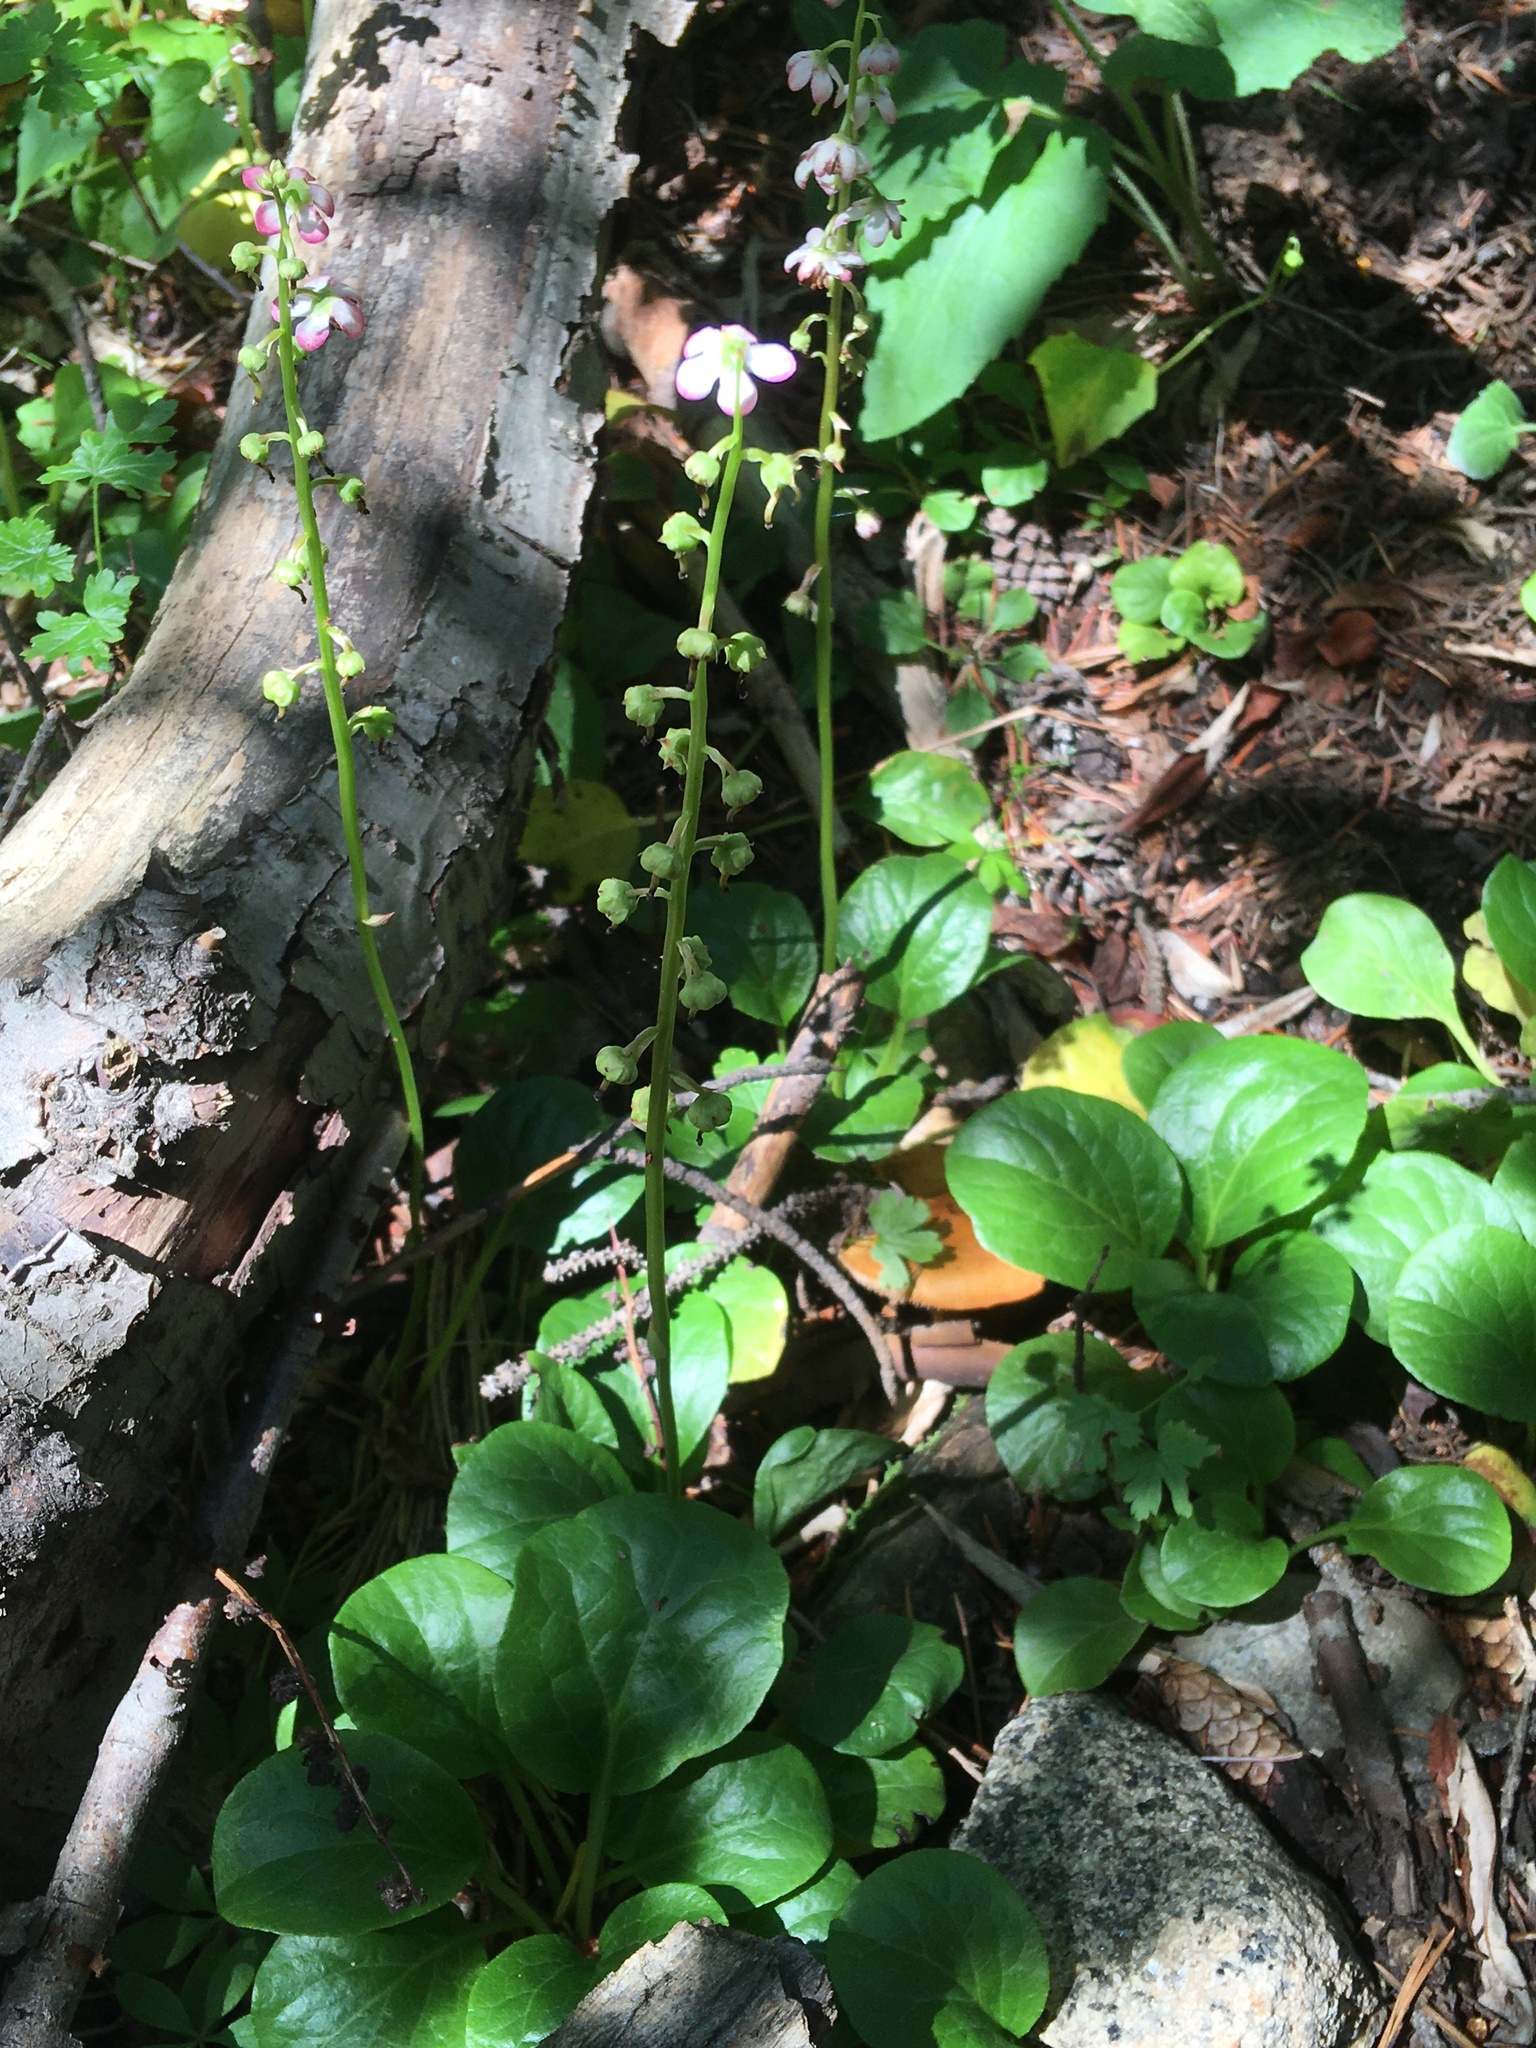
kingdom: Plantae
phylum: Tracheophyta
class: Magnoliopsida
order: Ericales
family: Ericaceae
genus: Pyrola
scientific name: Pyrola asarifolia
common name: Bog wintergreen
